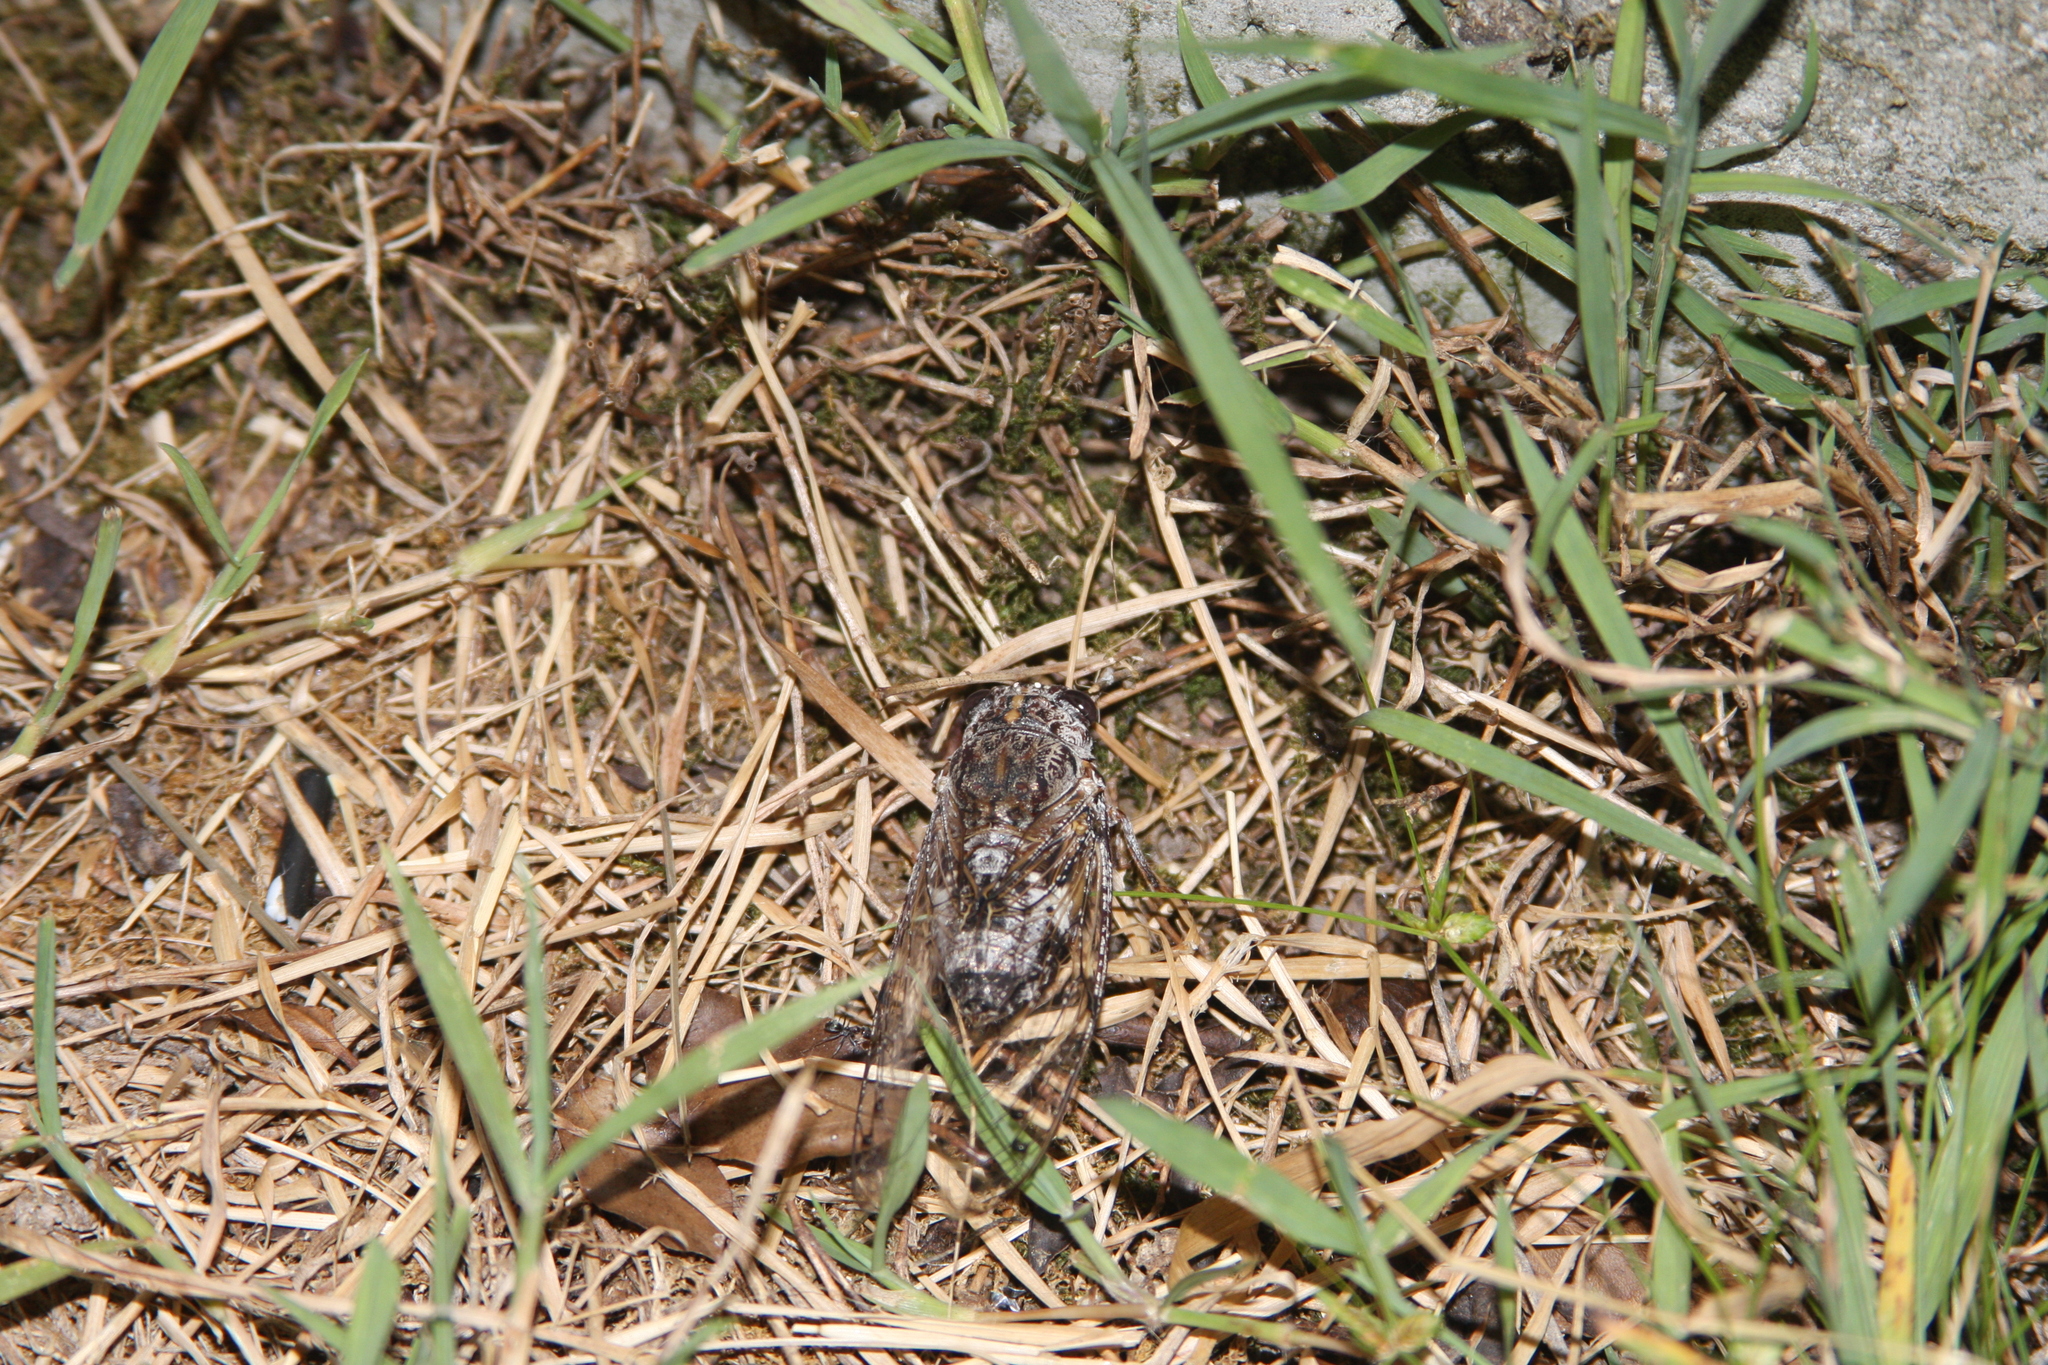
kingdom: Animalia
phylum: Arthropoda
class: Insecta
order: Hemiptera
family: Cicadidae
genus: Aleeta
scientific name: Aleeta curvicosta
